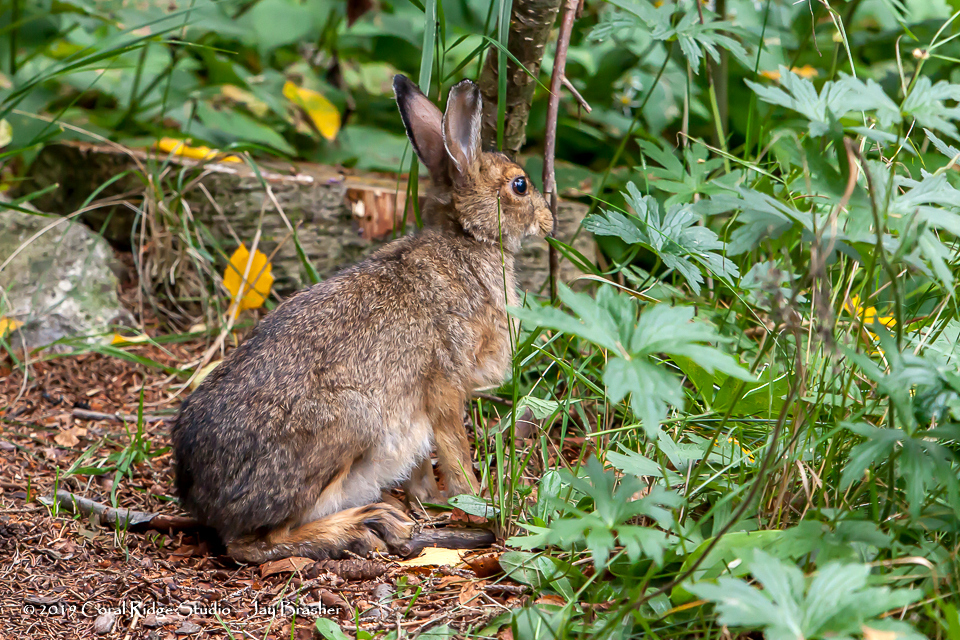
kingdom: Animalia
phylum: Chordata
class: Mammalia
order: Lagomorpha
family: Leporidae
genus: Lepus
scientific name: Lepus americanus
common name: Snowshoe hare
